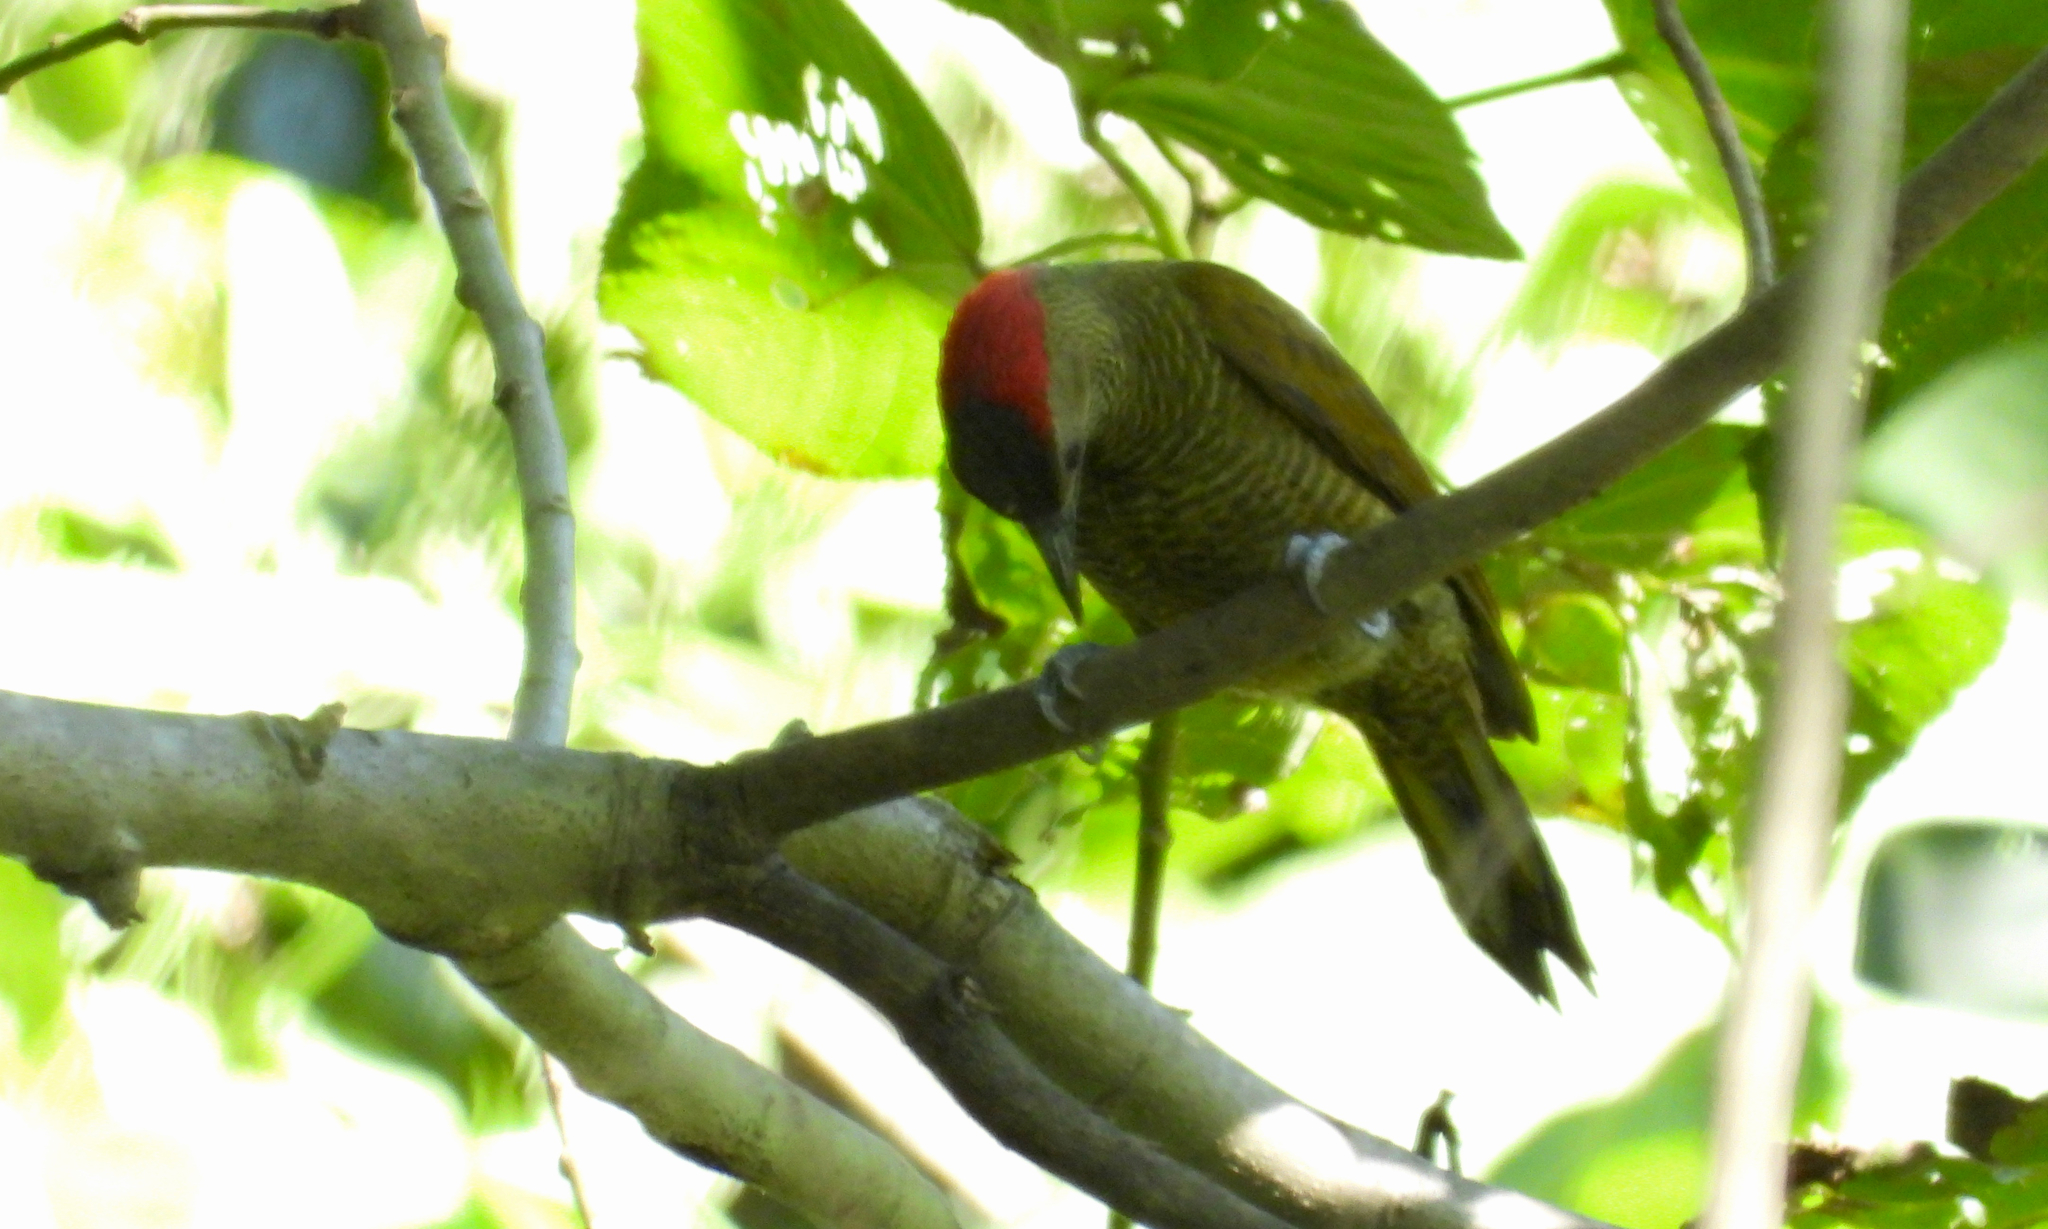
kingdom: Animalia
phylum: Chordata
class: Aves
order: Piciformes
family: Picidae
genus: Colaptes
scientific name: Colaptes rubiginosus
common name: Golden-olive woodpecker
